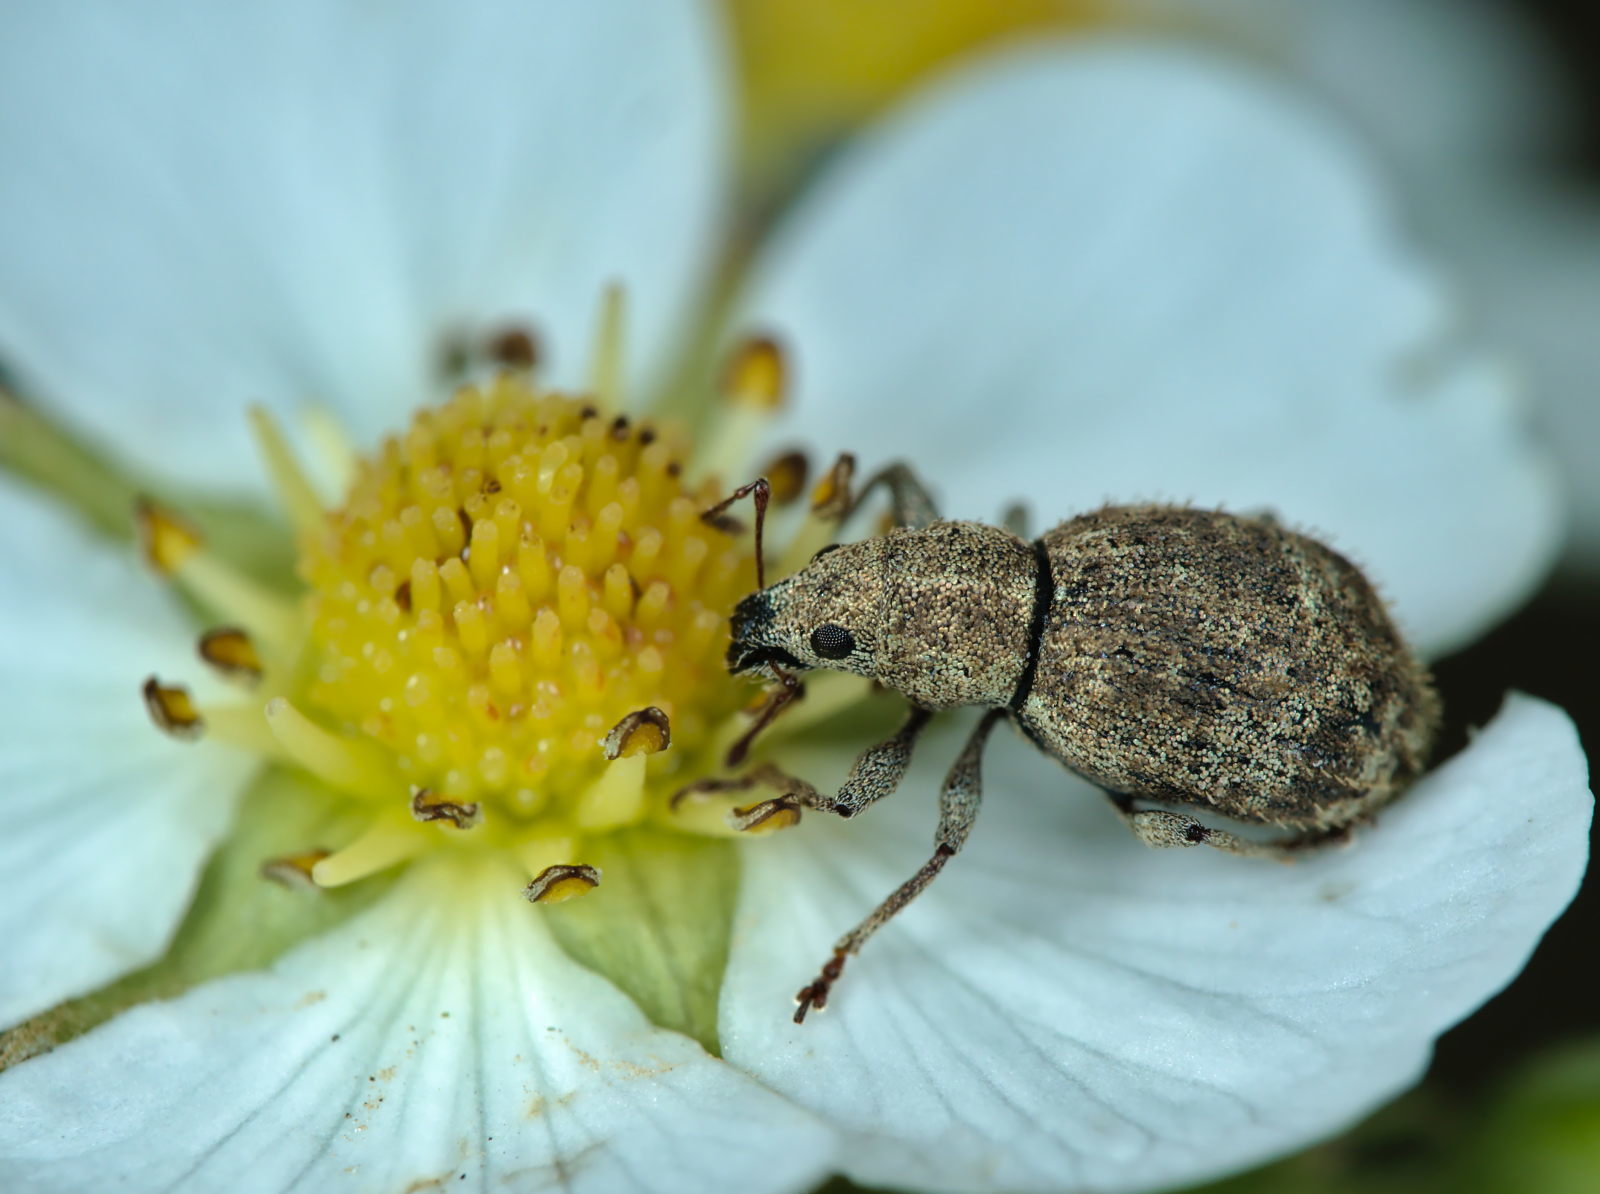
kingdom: Animalia
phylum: Arthropoda
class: Insecta
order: Coleoptera
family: Curculionidae
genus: Sciaphilus
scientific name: Sciaphilus asperatus
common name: Weevil
